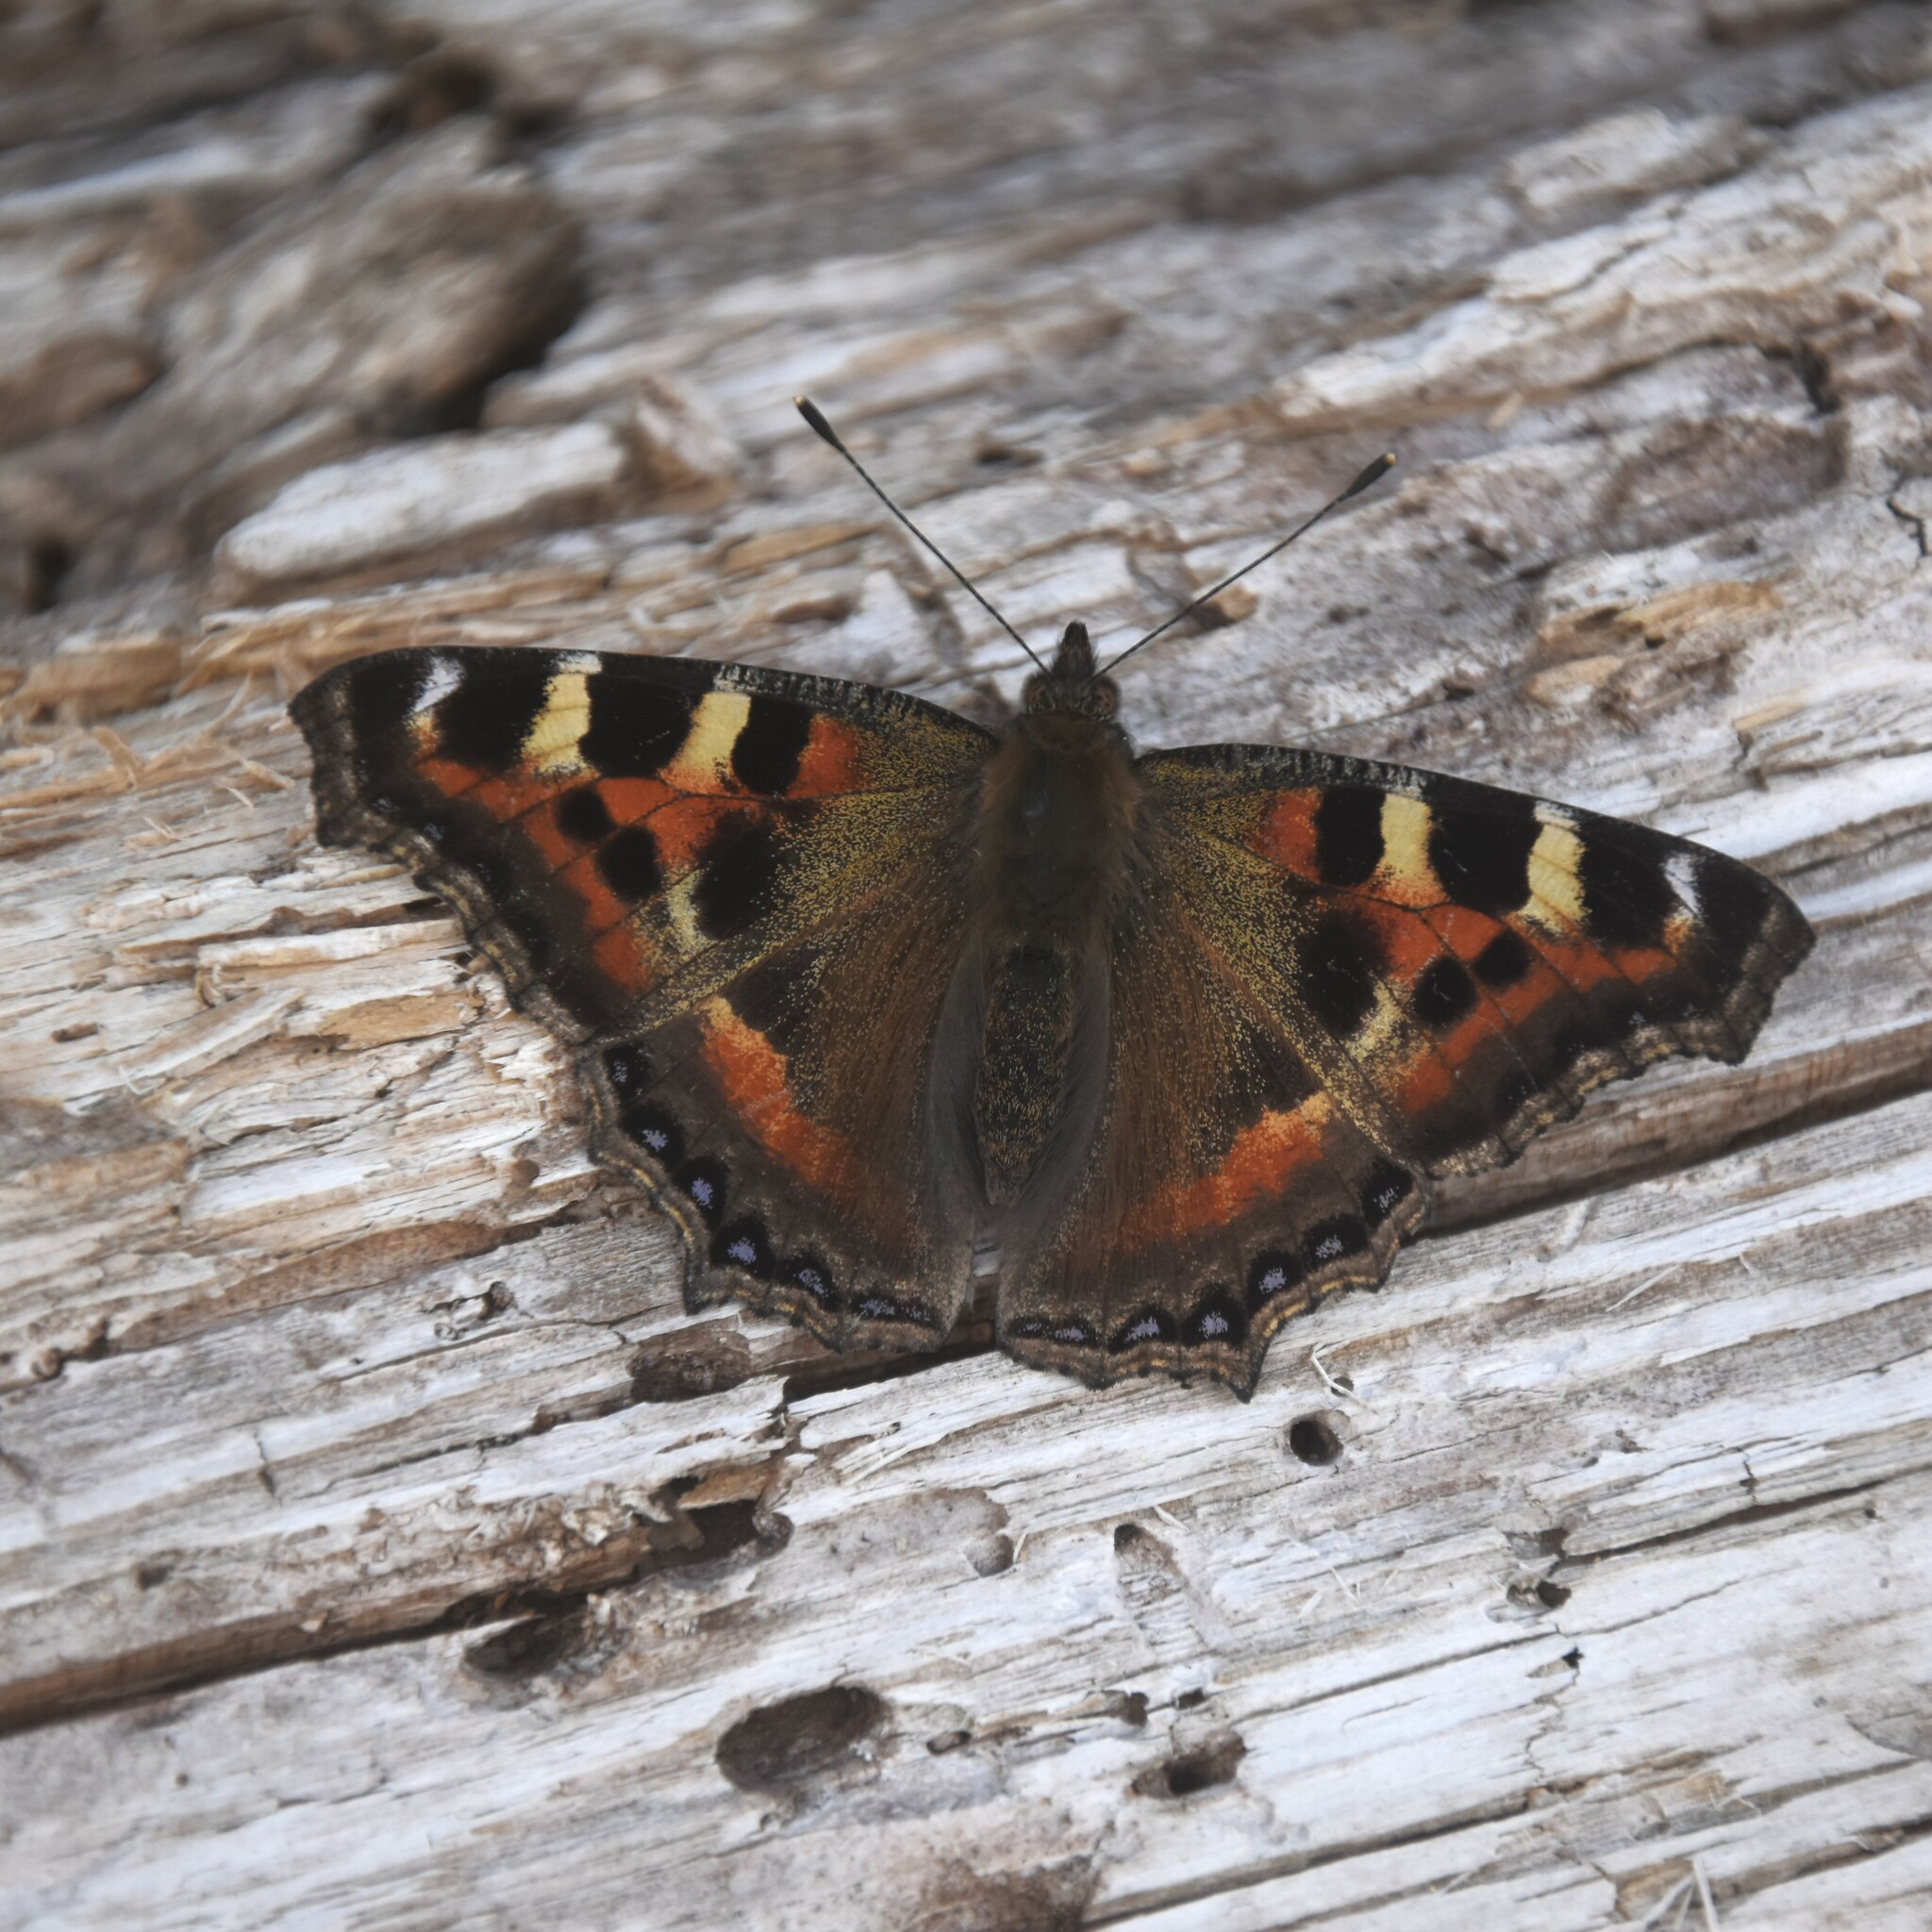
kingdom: Animalia
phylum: Arthropoda
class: Insecta
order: Lepidoptera
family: Nymphalidae
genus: Aglais
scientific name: Aglais caschmirensis
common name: Indian tortoiseshell
